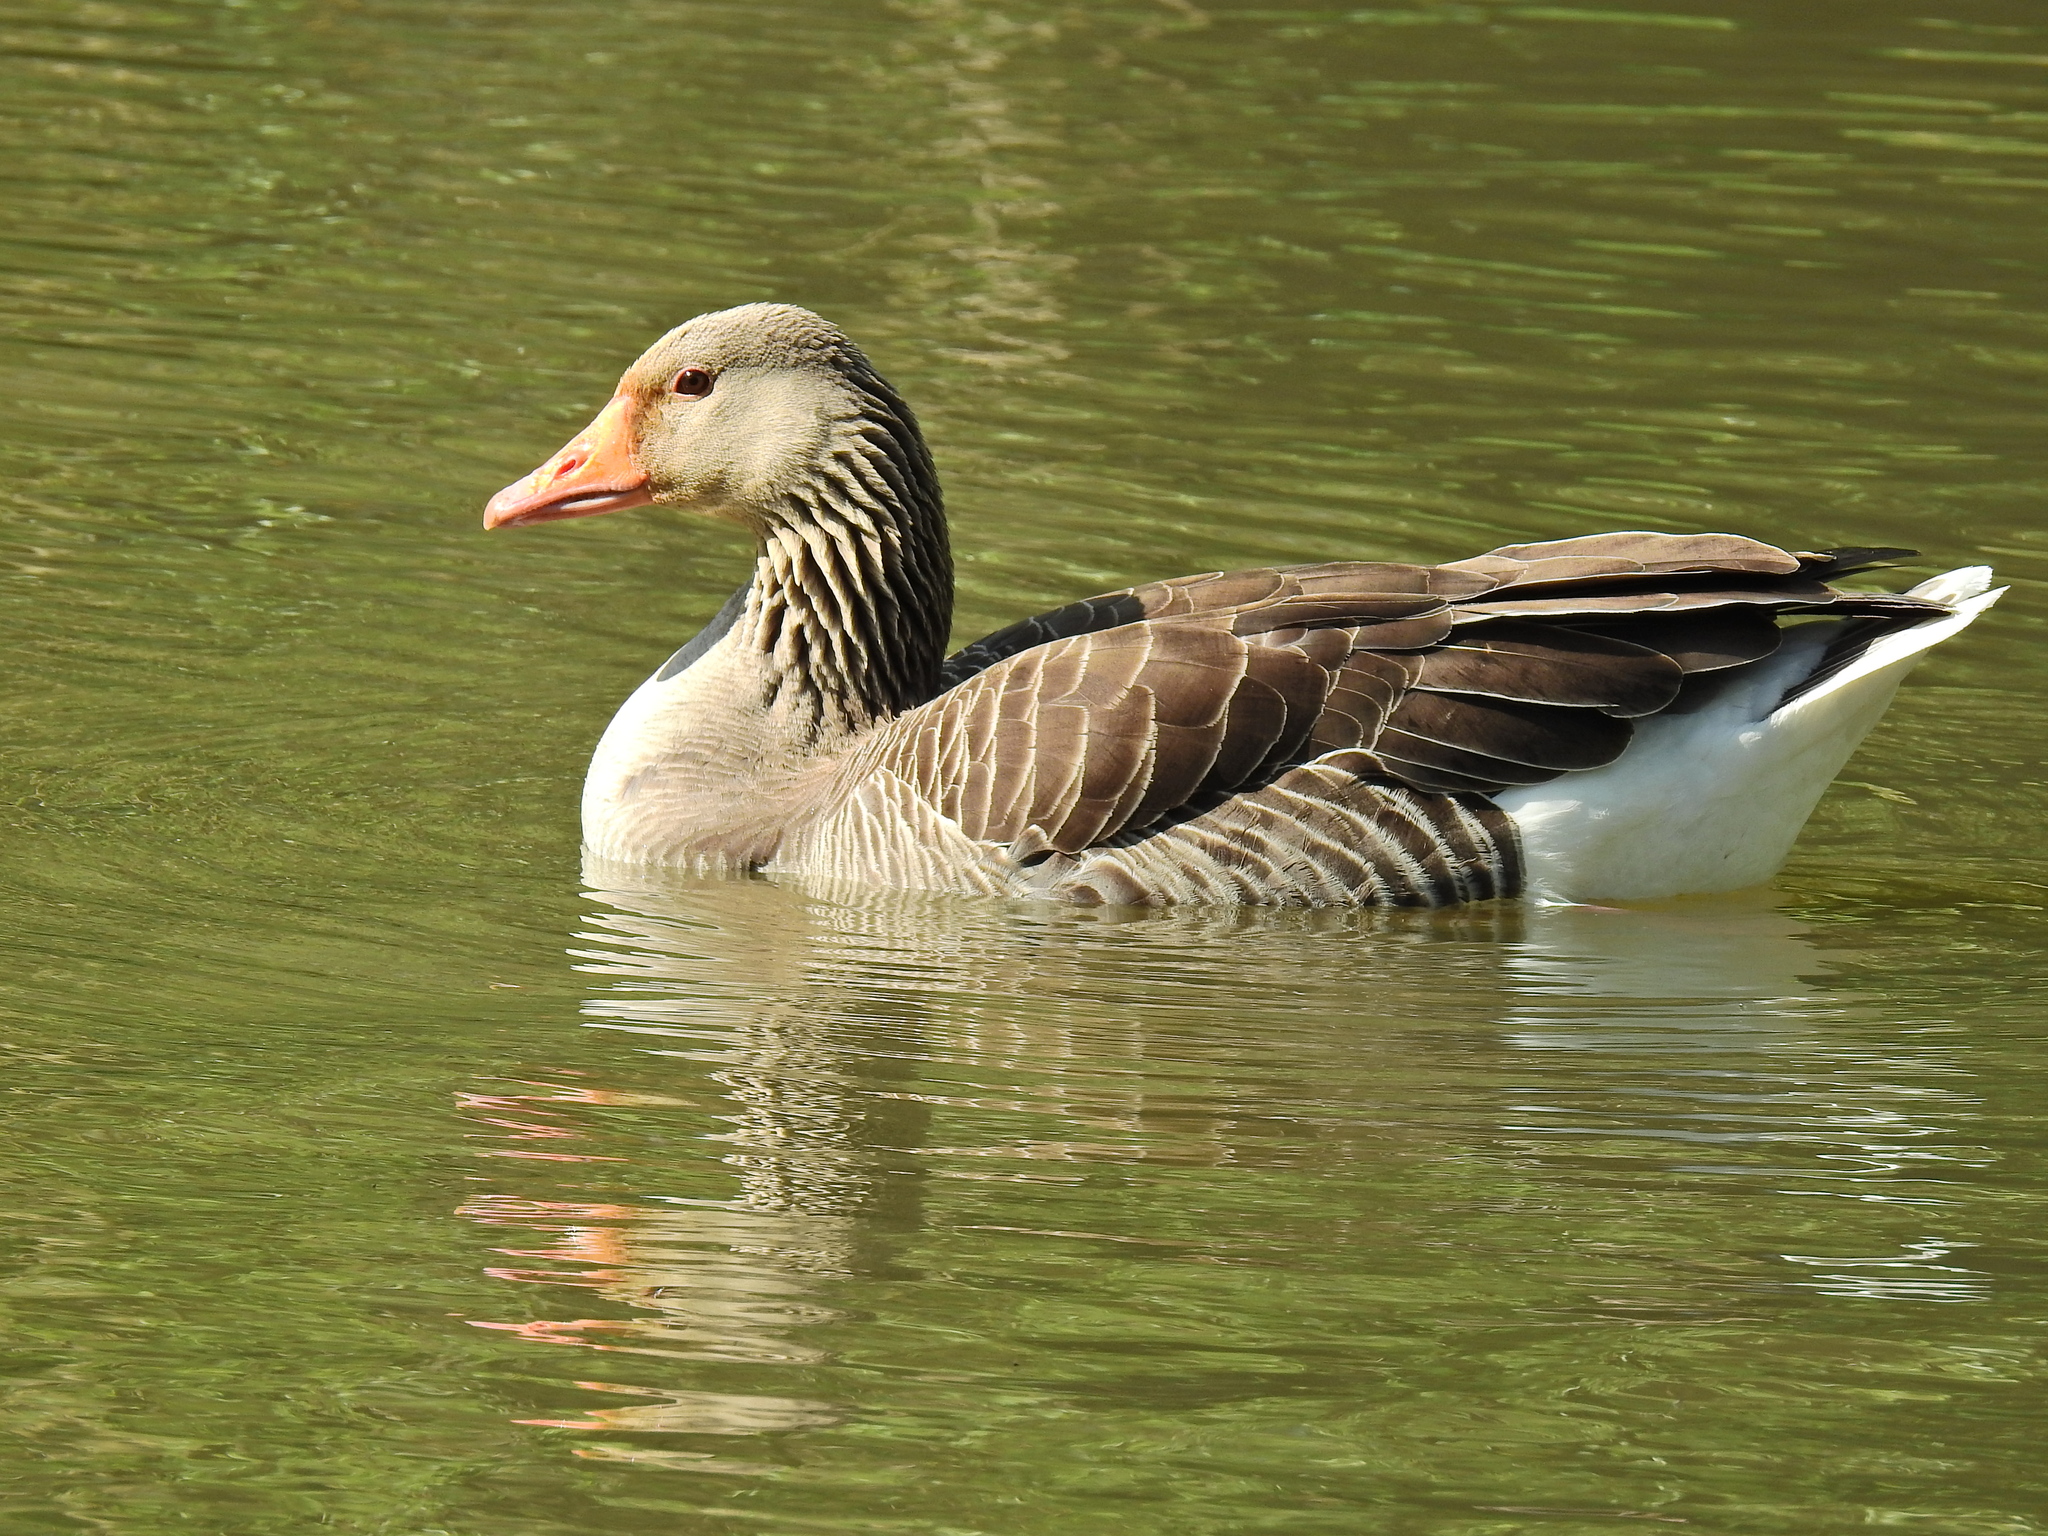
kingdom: Animalia
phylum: Chordata
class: Aves
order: Anseriformes
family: Anatidae
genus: Anser
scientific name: Anser anser
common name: Greylag goose
